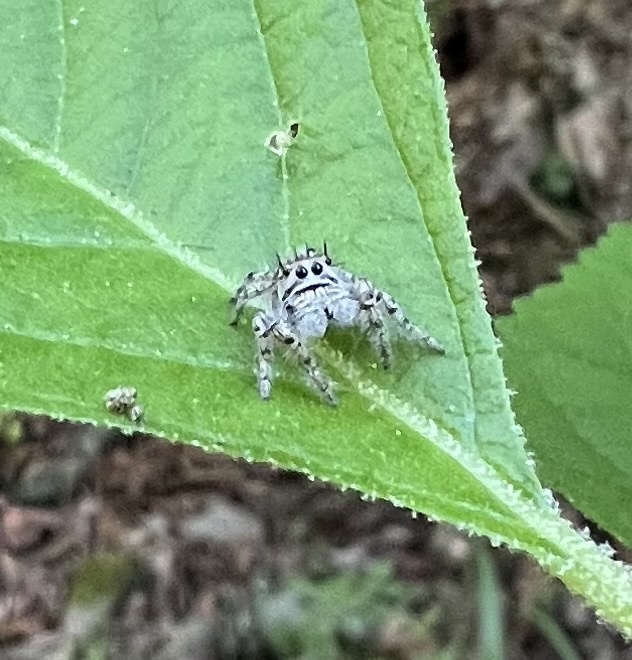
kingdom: Animalia
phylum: Arthropoda
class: Arachnida
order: Araneae
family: Salticidae
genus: Phidippus
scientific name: Phidippus putnami
